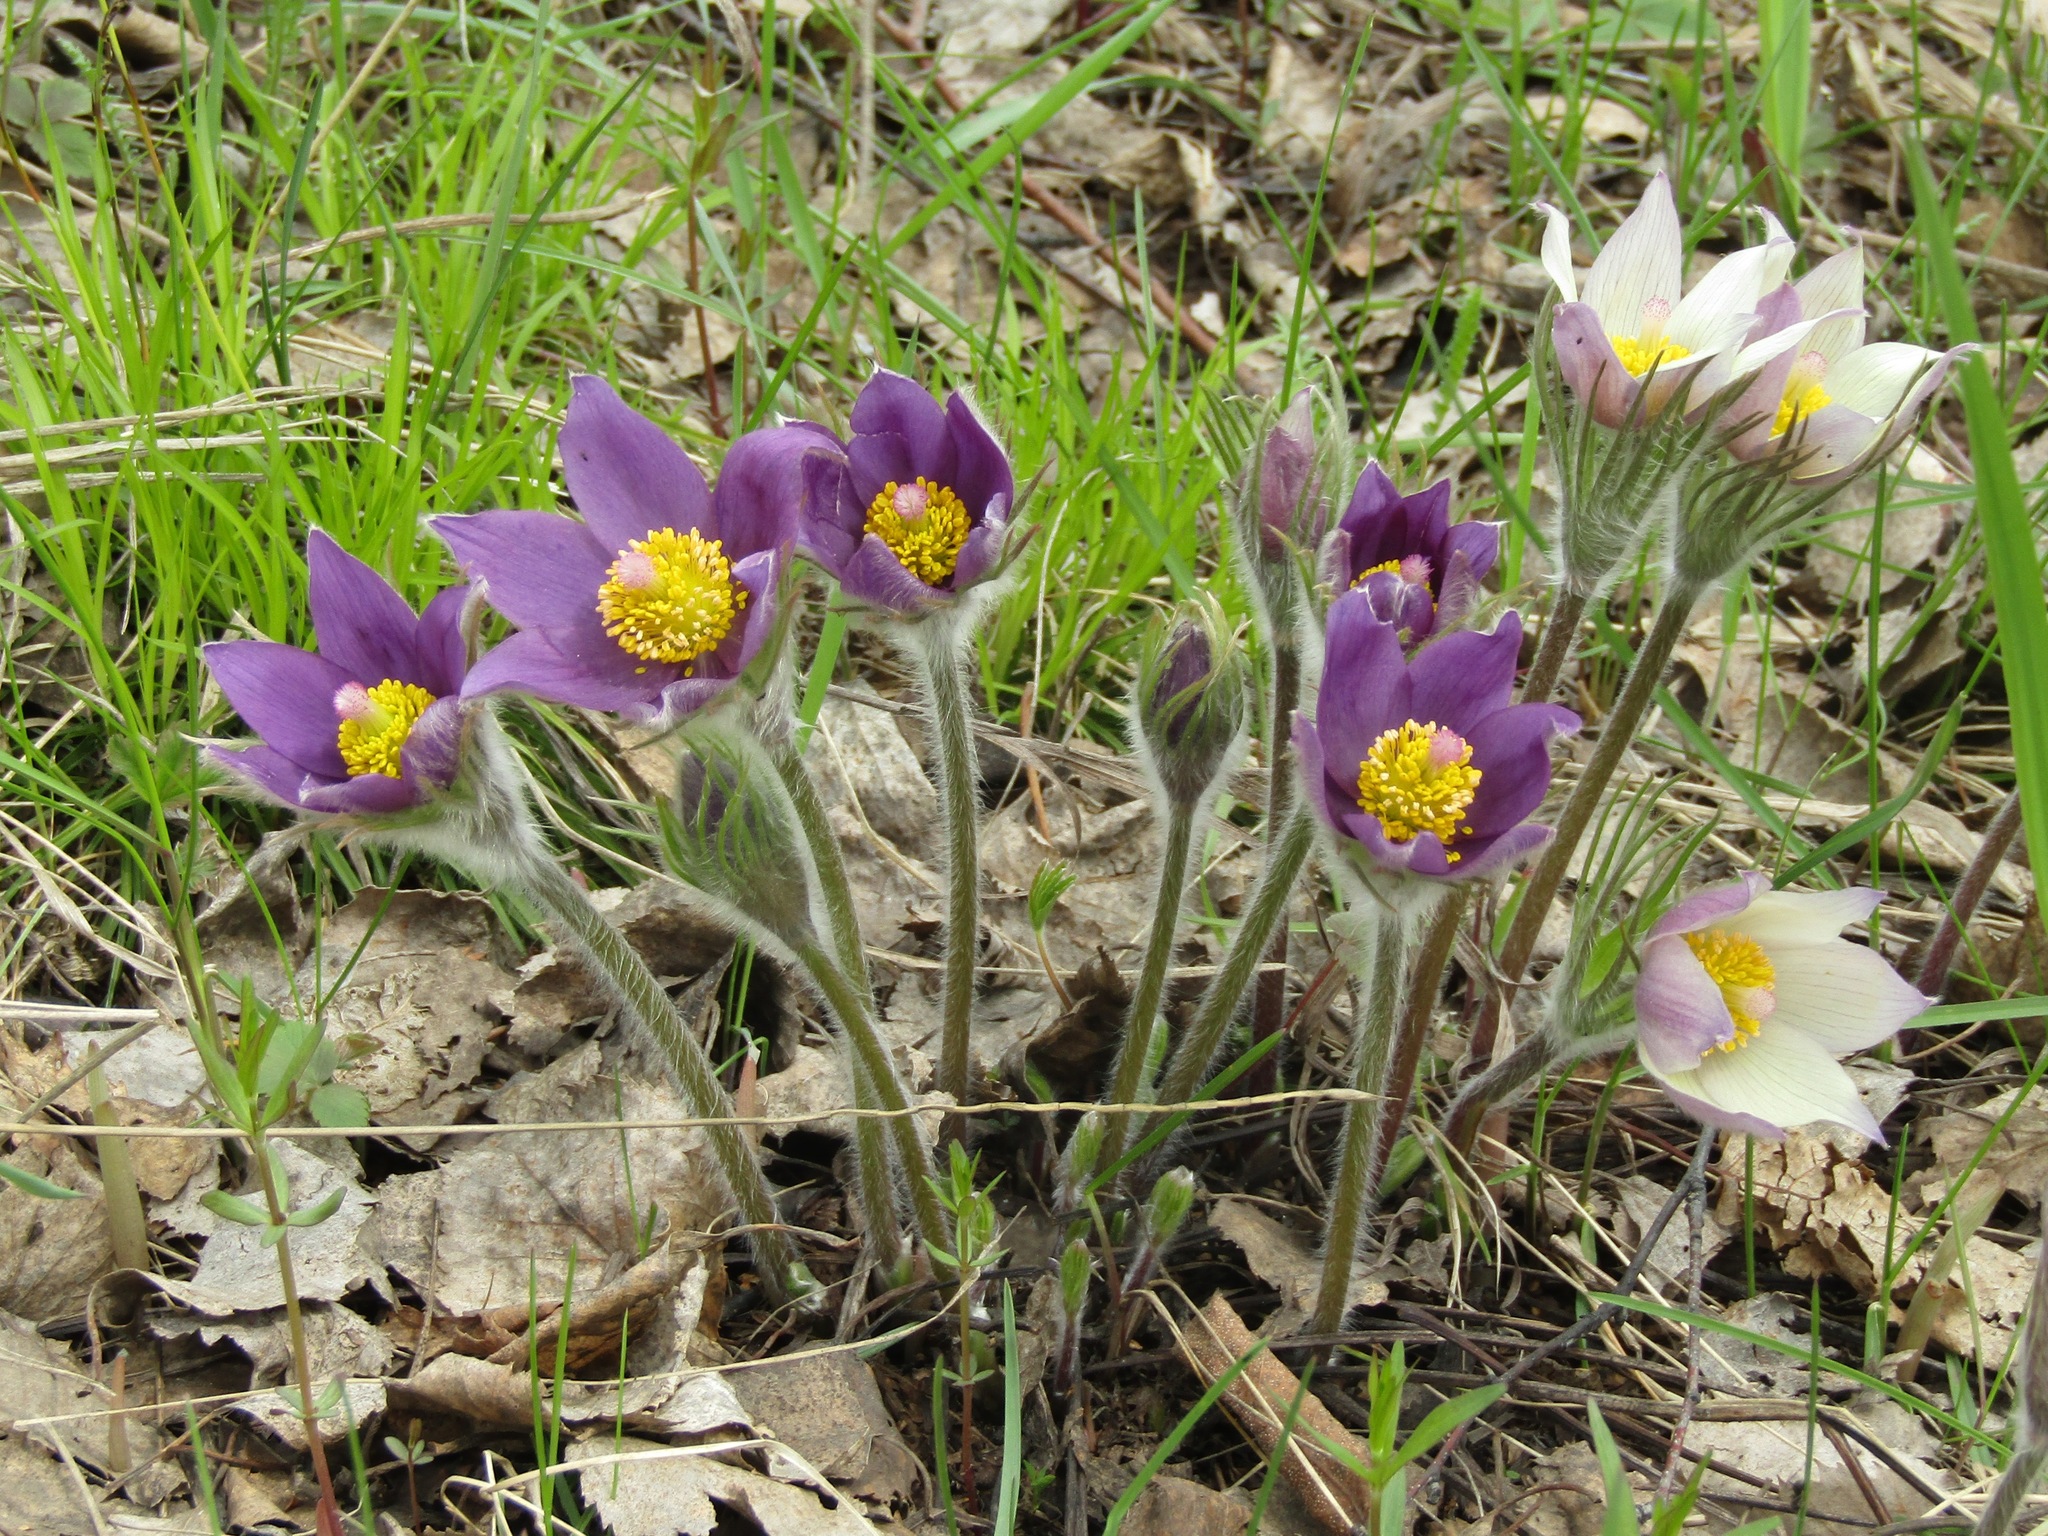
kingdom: Plantae
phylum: Tracheophyta
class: Magnoliopsida
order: Ranunculales
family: Ranunculaceae
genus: Pulsatilla
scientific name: Pulsatilla patens
